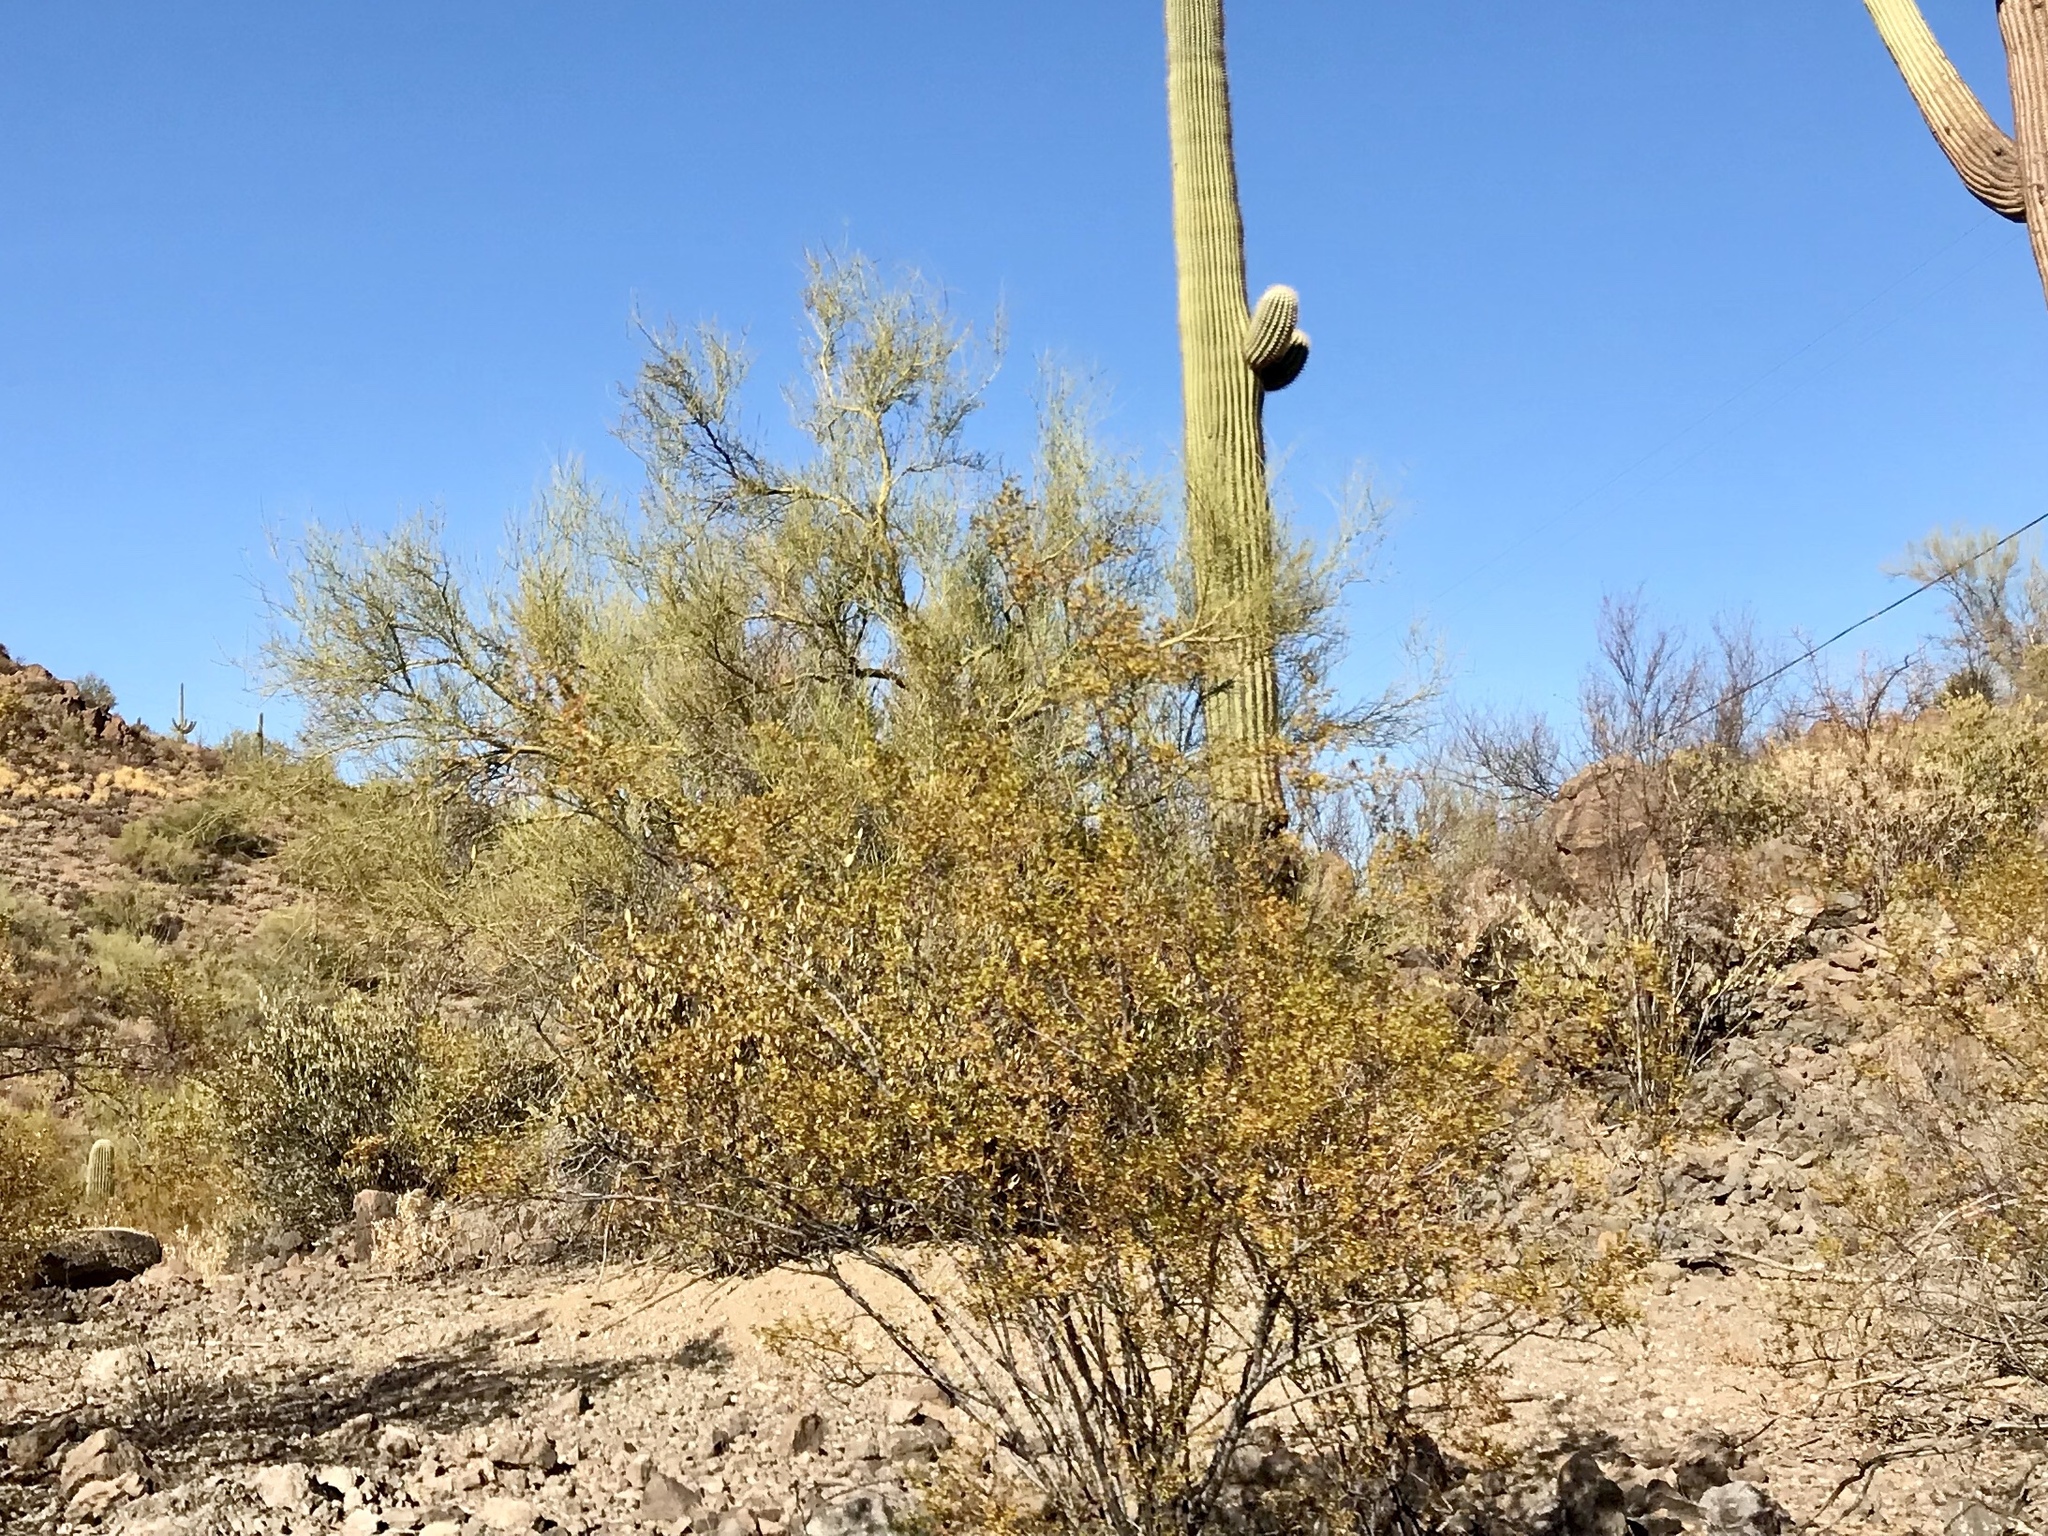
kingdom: Plantae
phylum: Tracheophyta
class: Magnoliopsida
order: Zygophyllales
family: Zygophyllaceae
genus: Larrea
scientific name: Larrea tridentata
